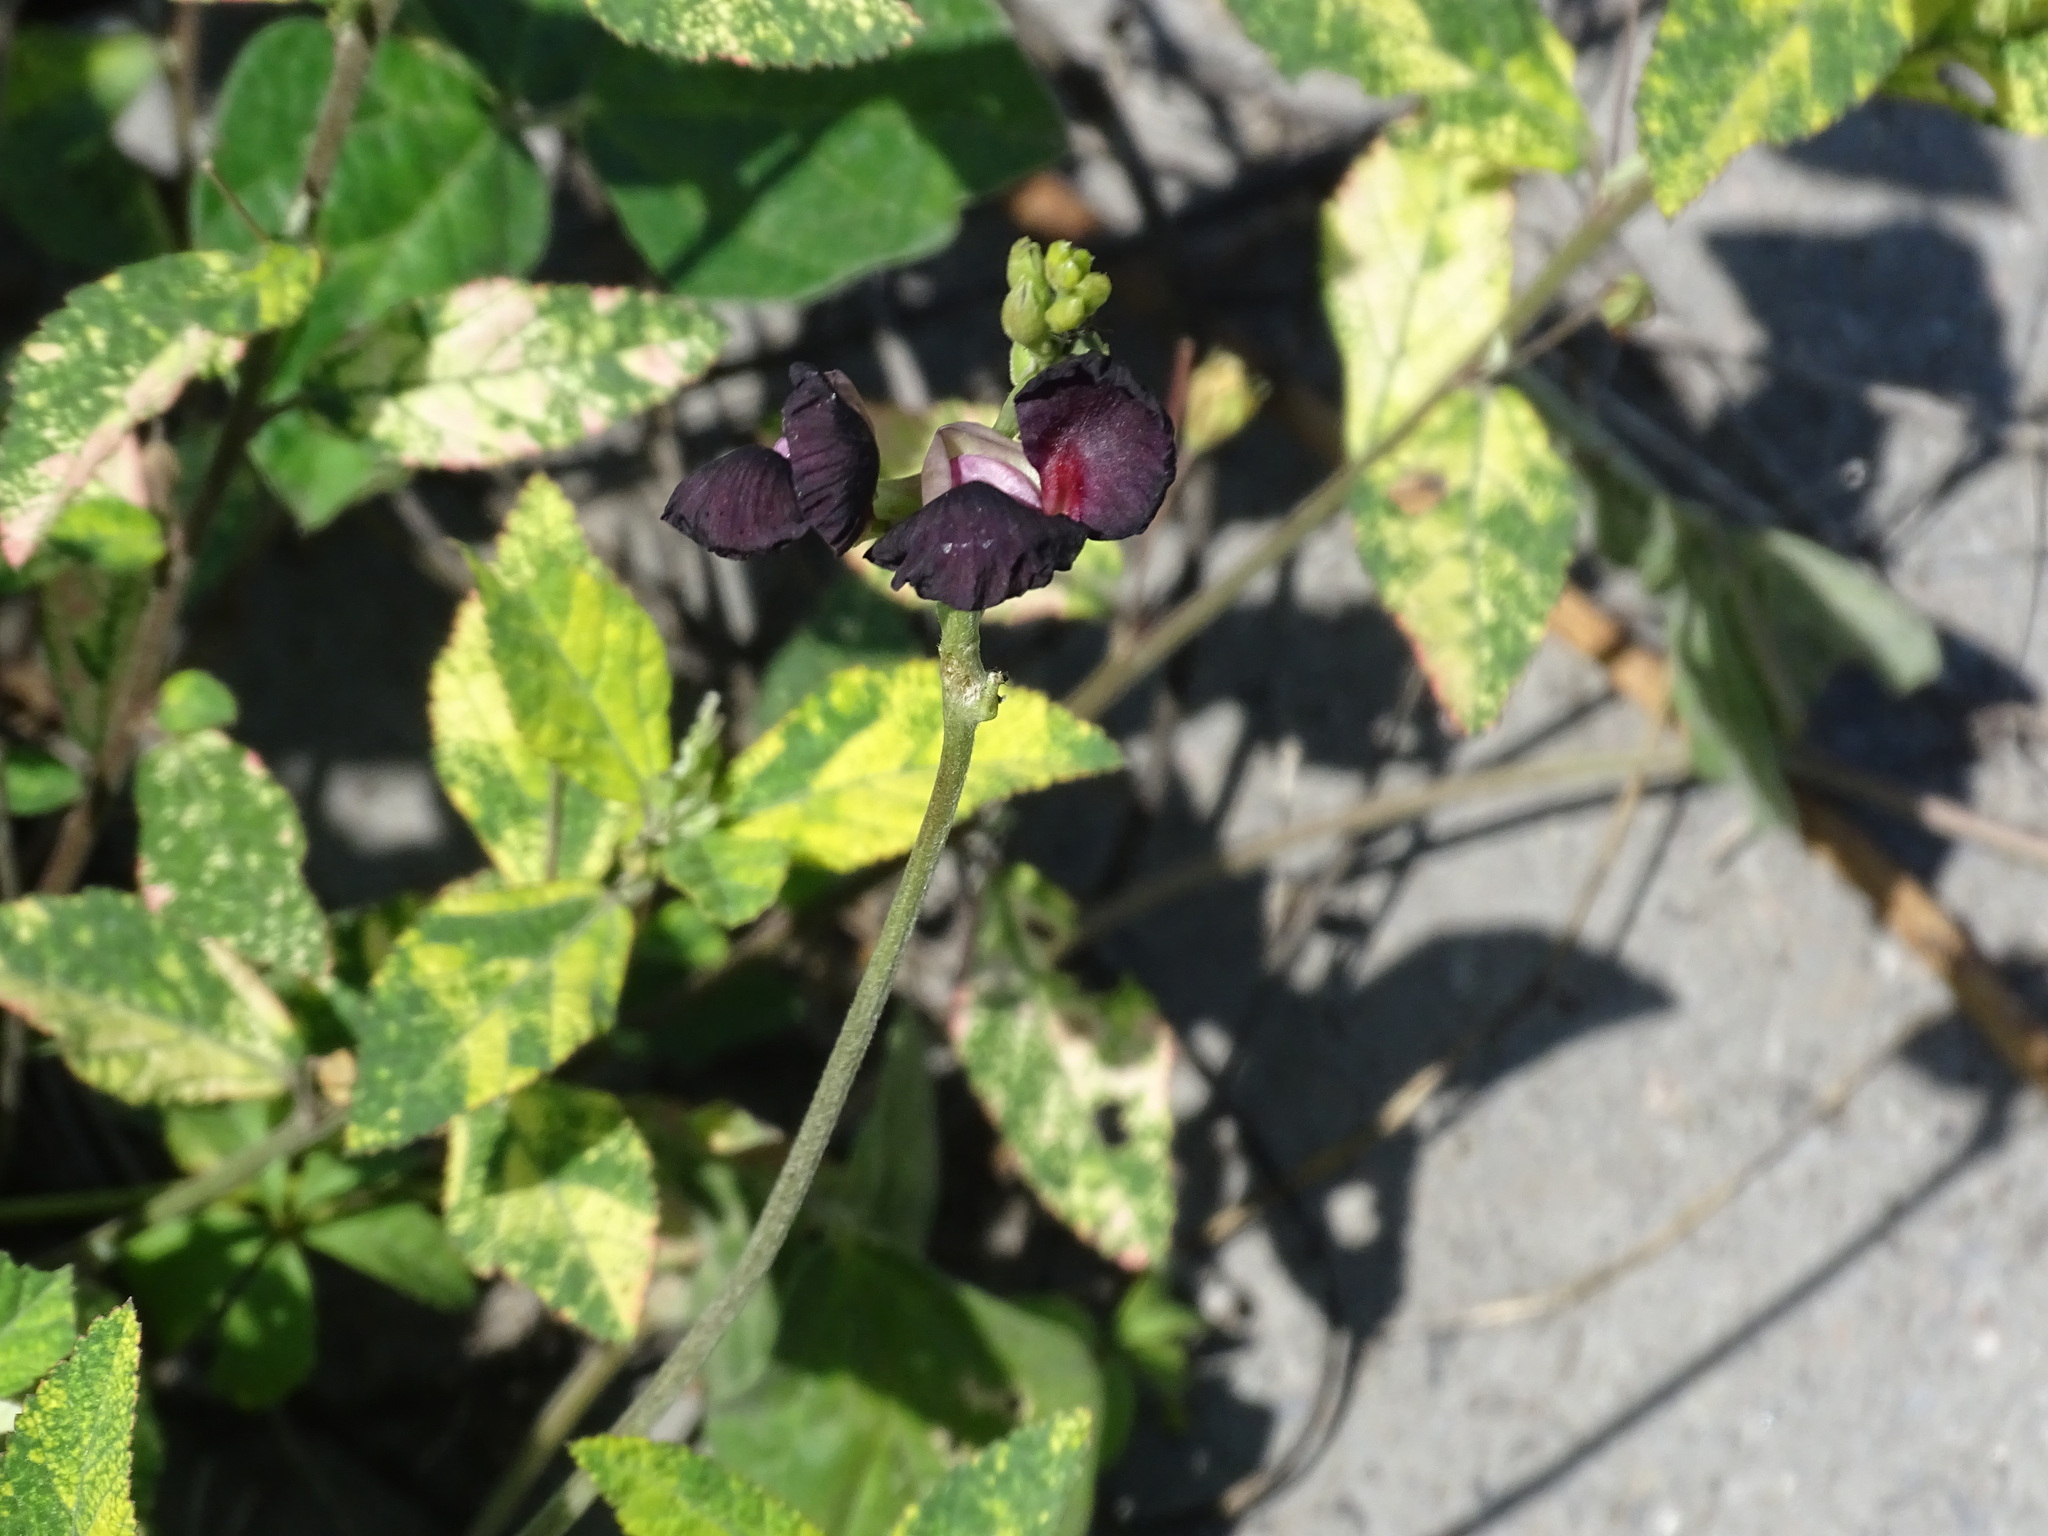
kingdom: Plantae
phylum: Tracheophyta
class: Magnoliopsida
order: Fabales
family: Fabaceae
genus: Macroptilium
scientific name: Macroptilium atropurpureum
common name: Purple bushbean
